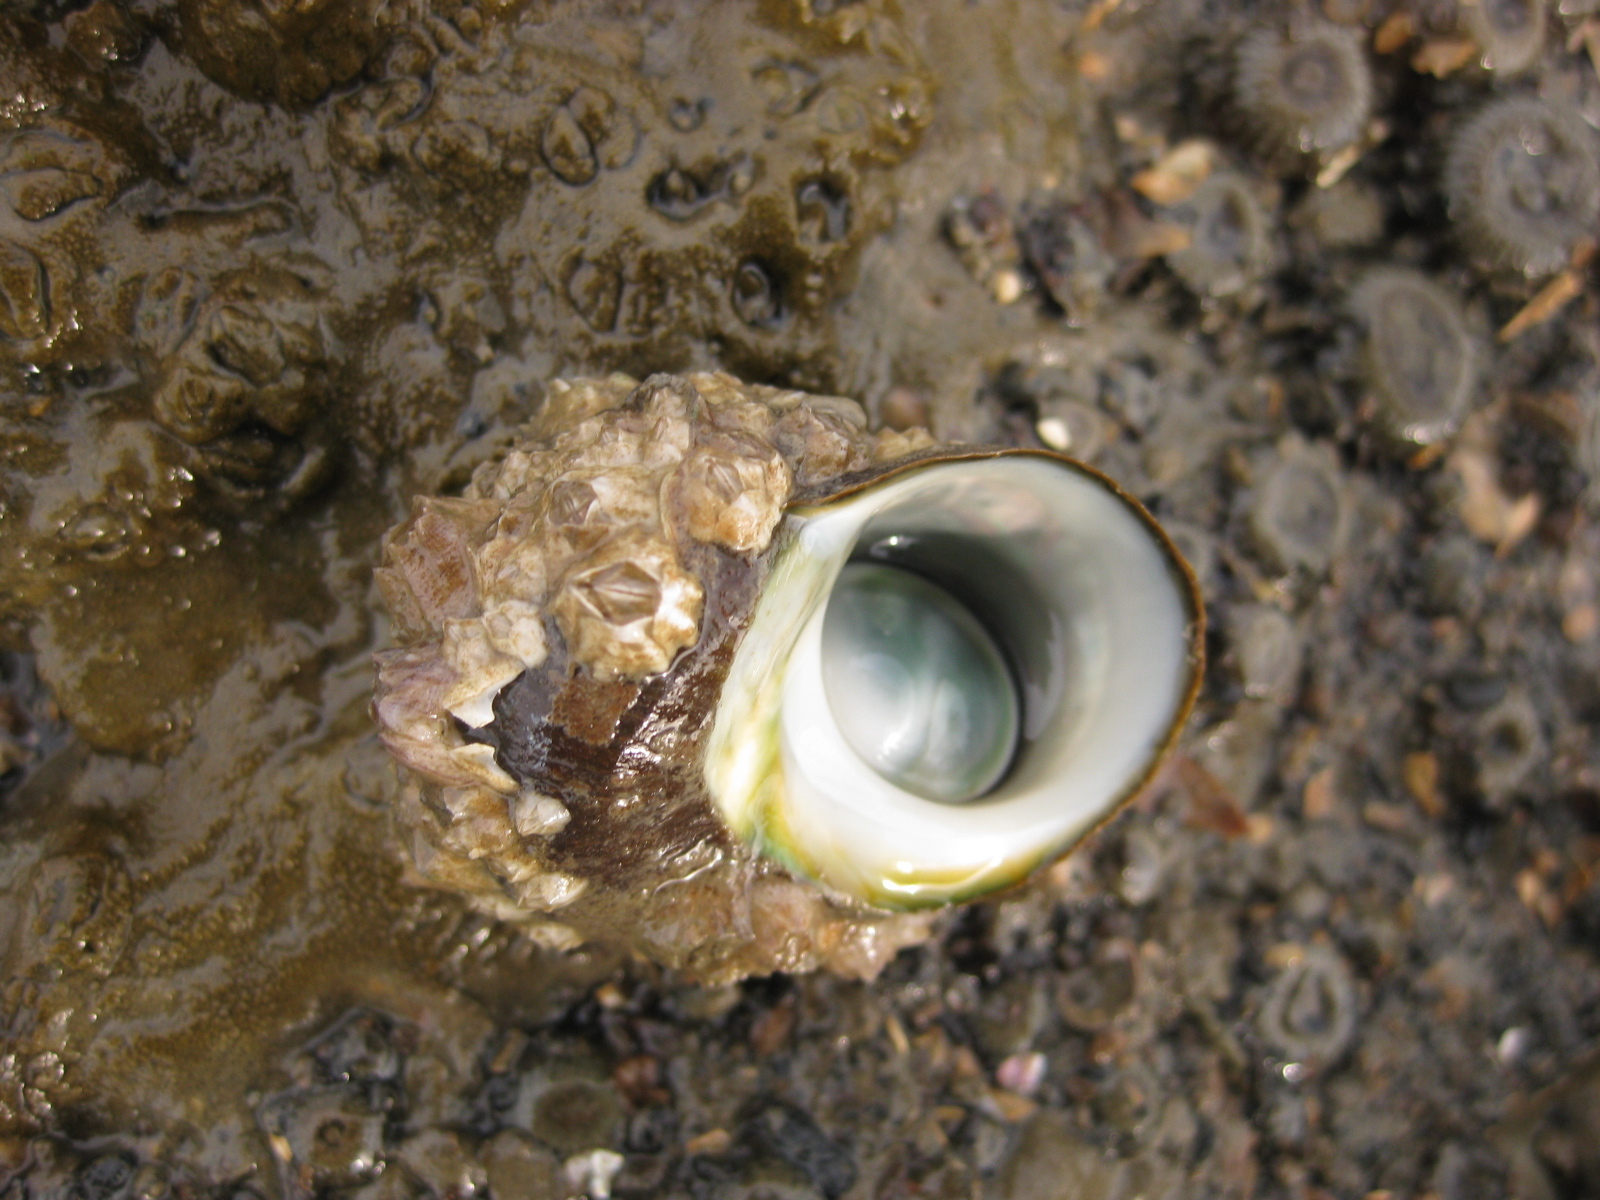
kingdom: Animalia
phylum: Mollusca
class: Gastropoda
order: Trochida
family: Turbinidae
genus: Lunella
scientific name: Lunella smaragda
